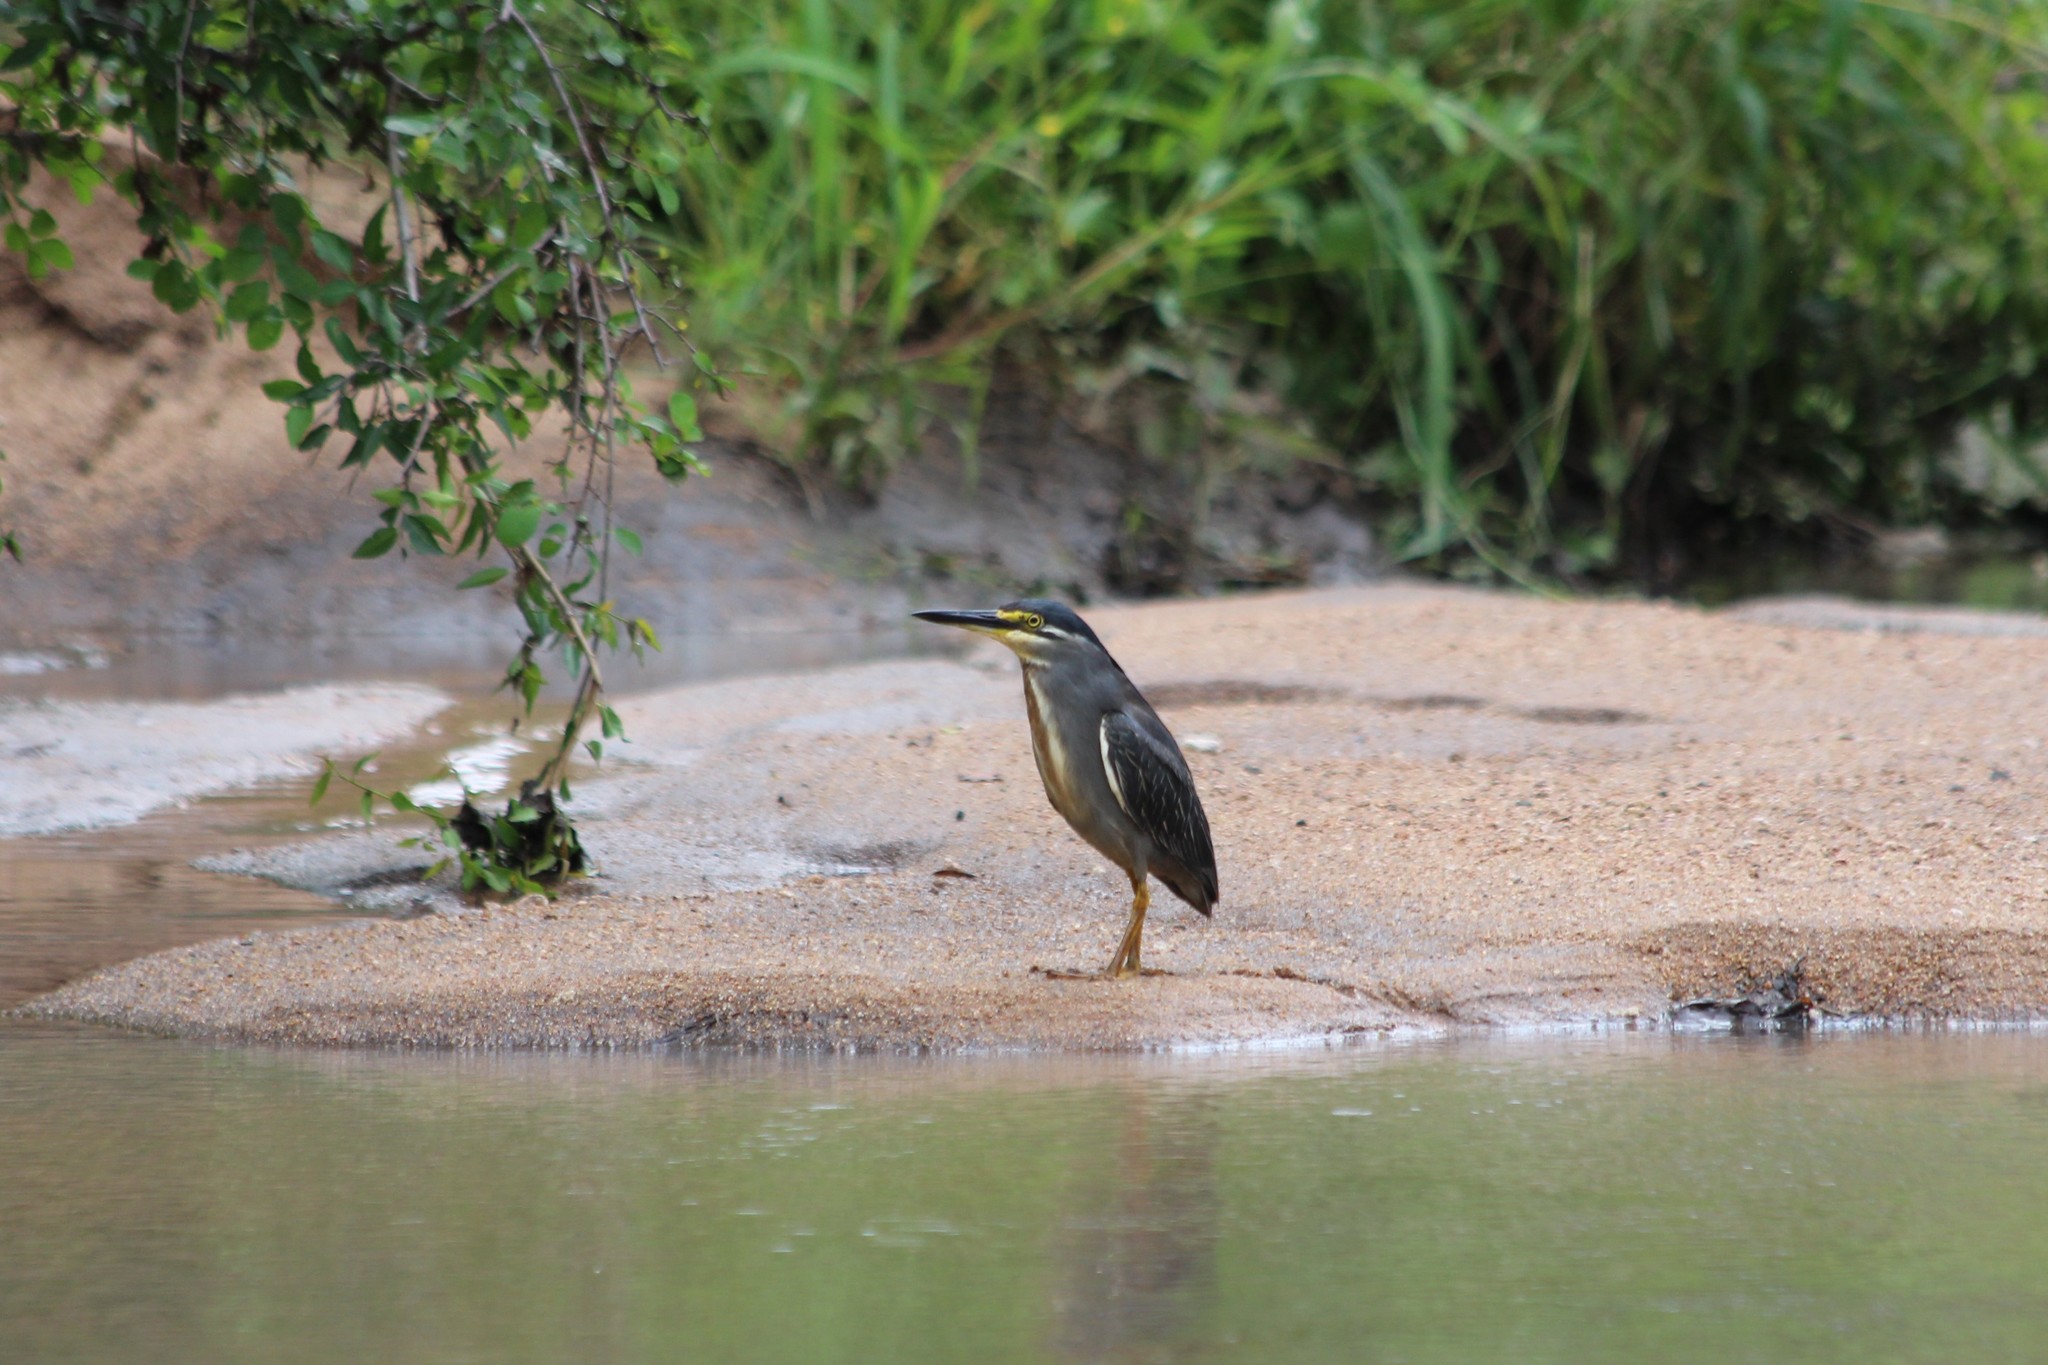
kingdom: Animalia
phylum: Chordata
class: Aves
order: Pelecaniformes
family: Ardeidae
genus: Butorides
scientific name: Butorides striata
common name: Striated heron
